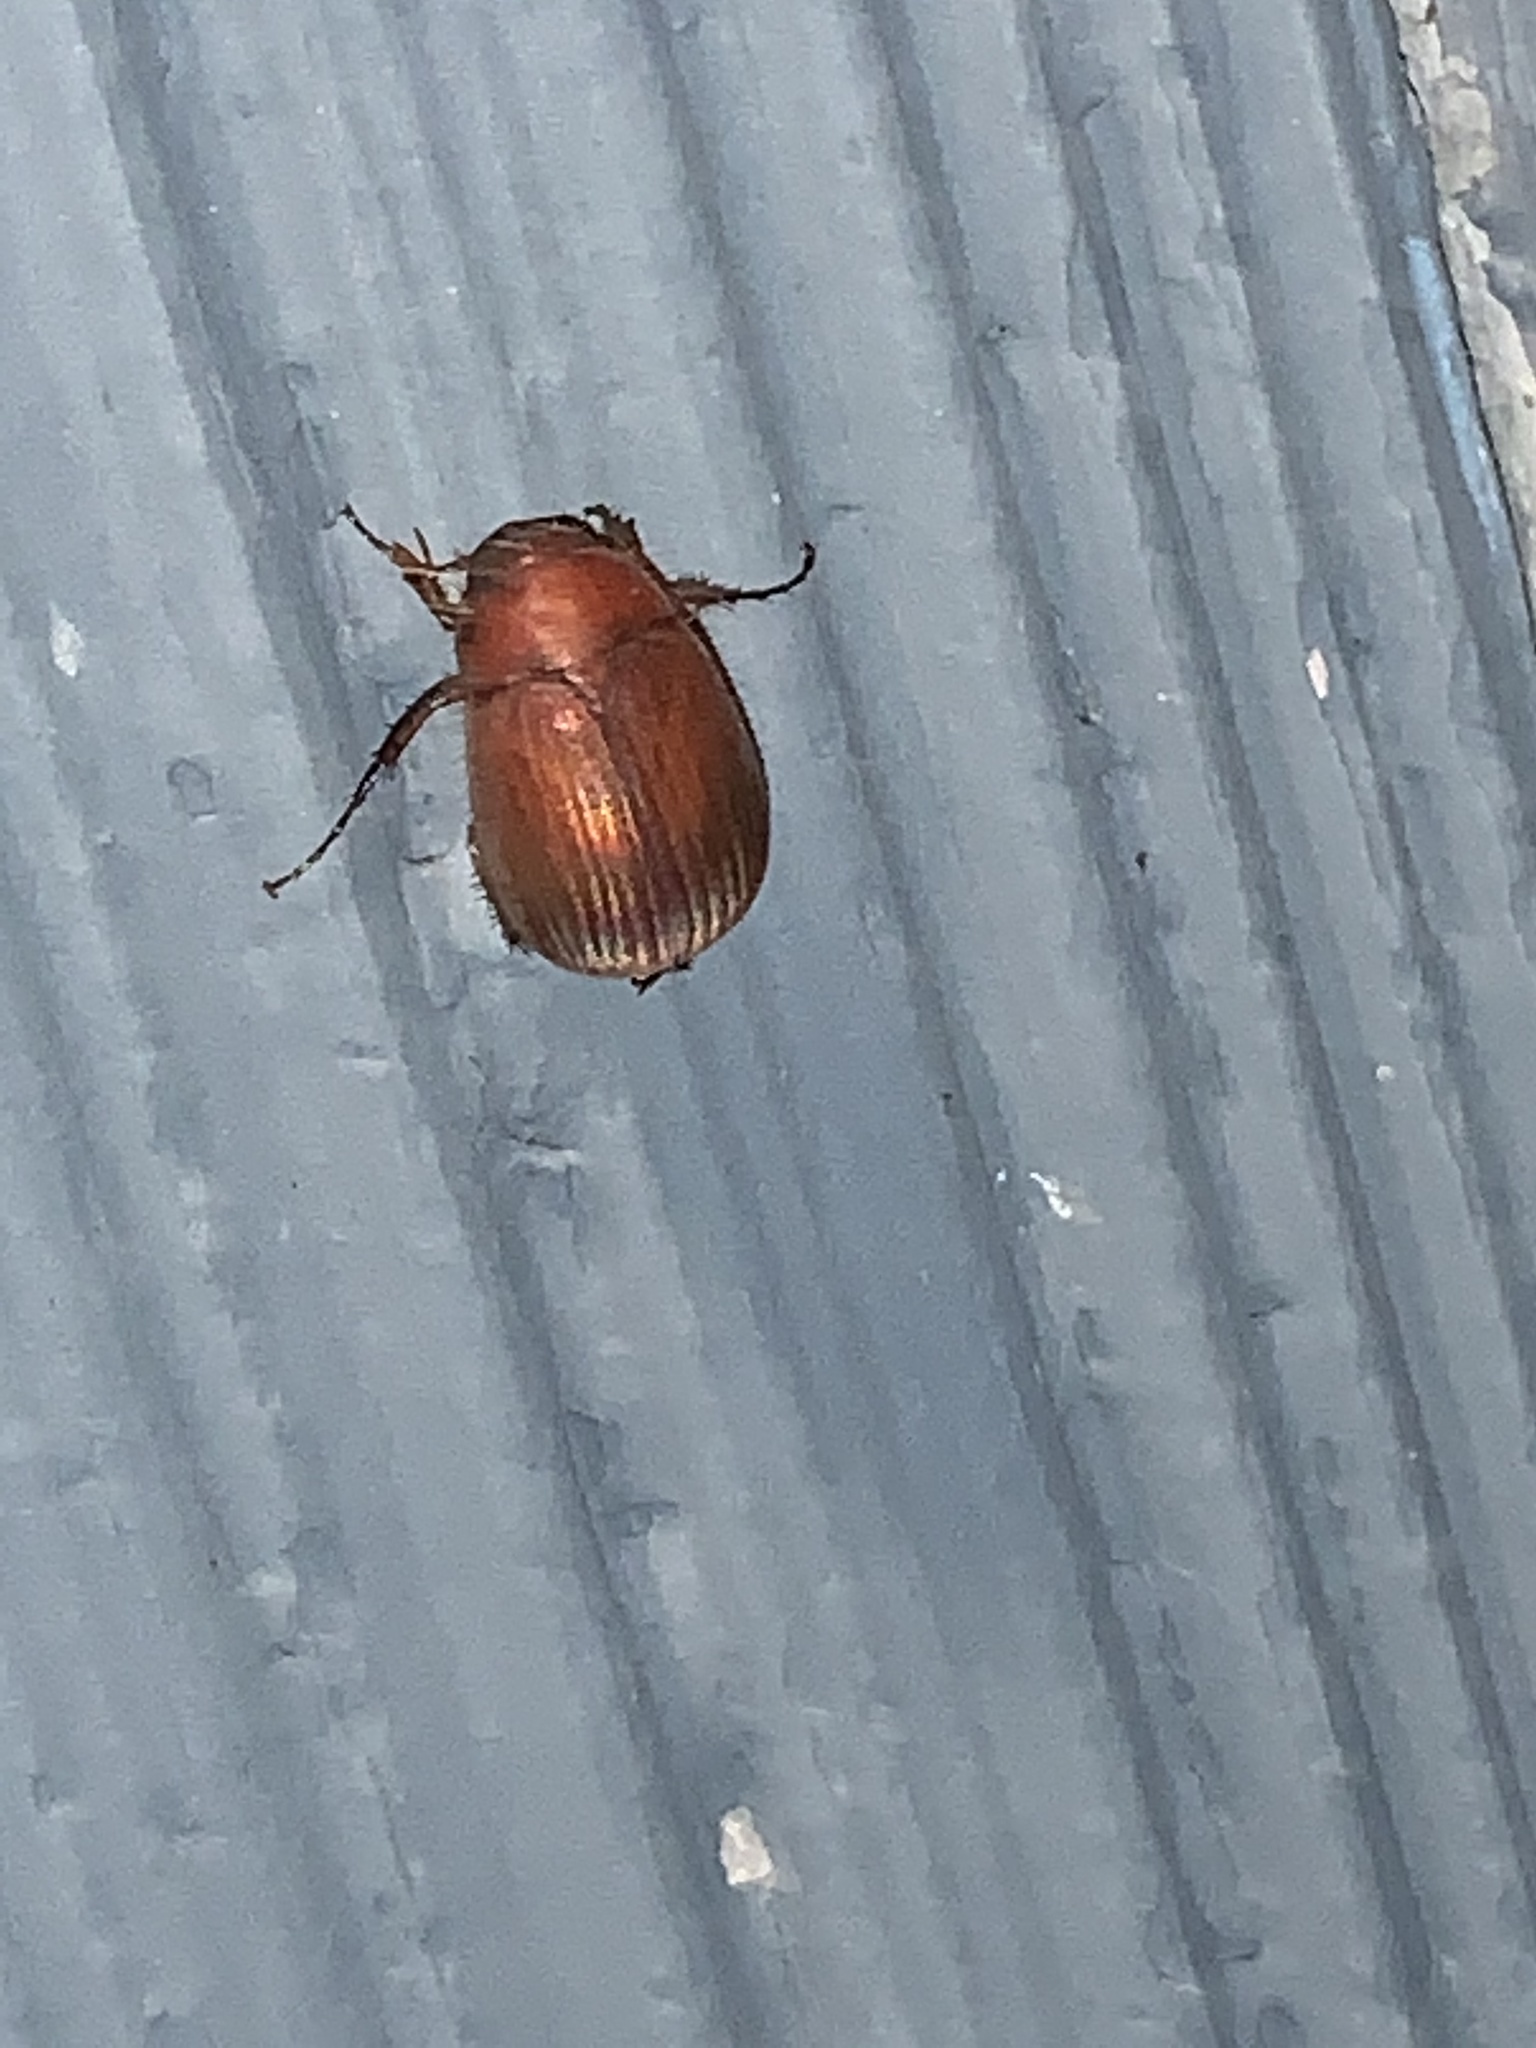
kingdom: Animalia
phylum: Arthropoda
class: Insecta
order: Coleoptera
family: Scarabaeidae
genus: Maladera
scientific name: Maladera formosae
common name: Asiatic garden beetle
